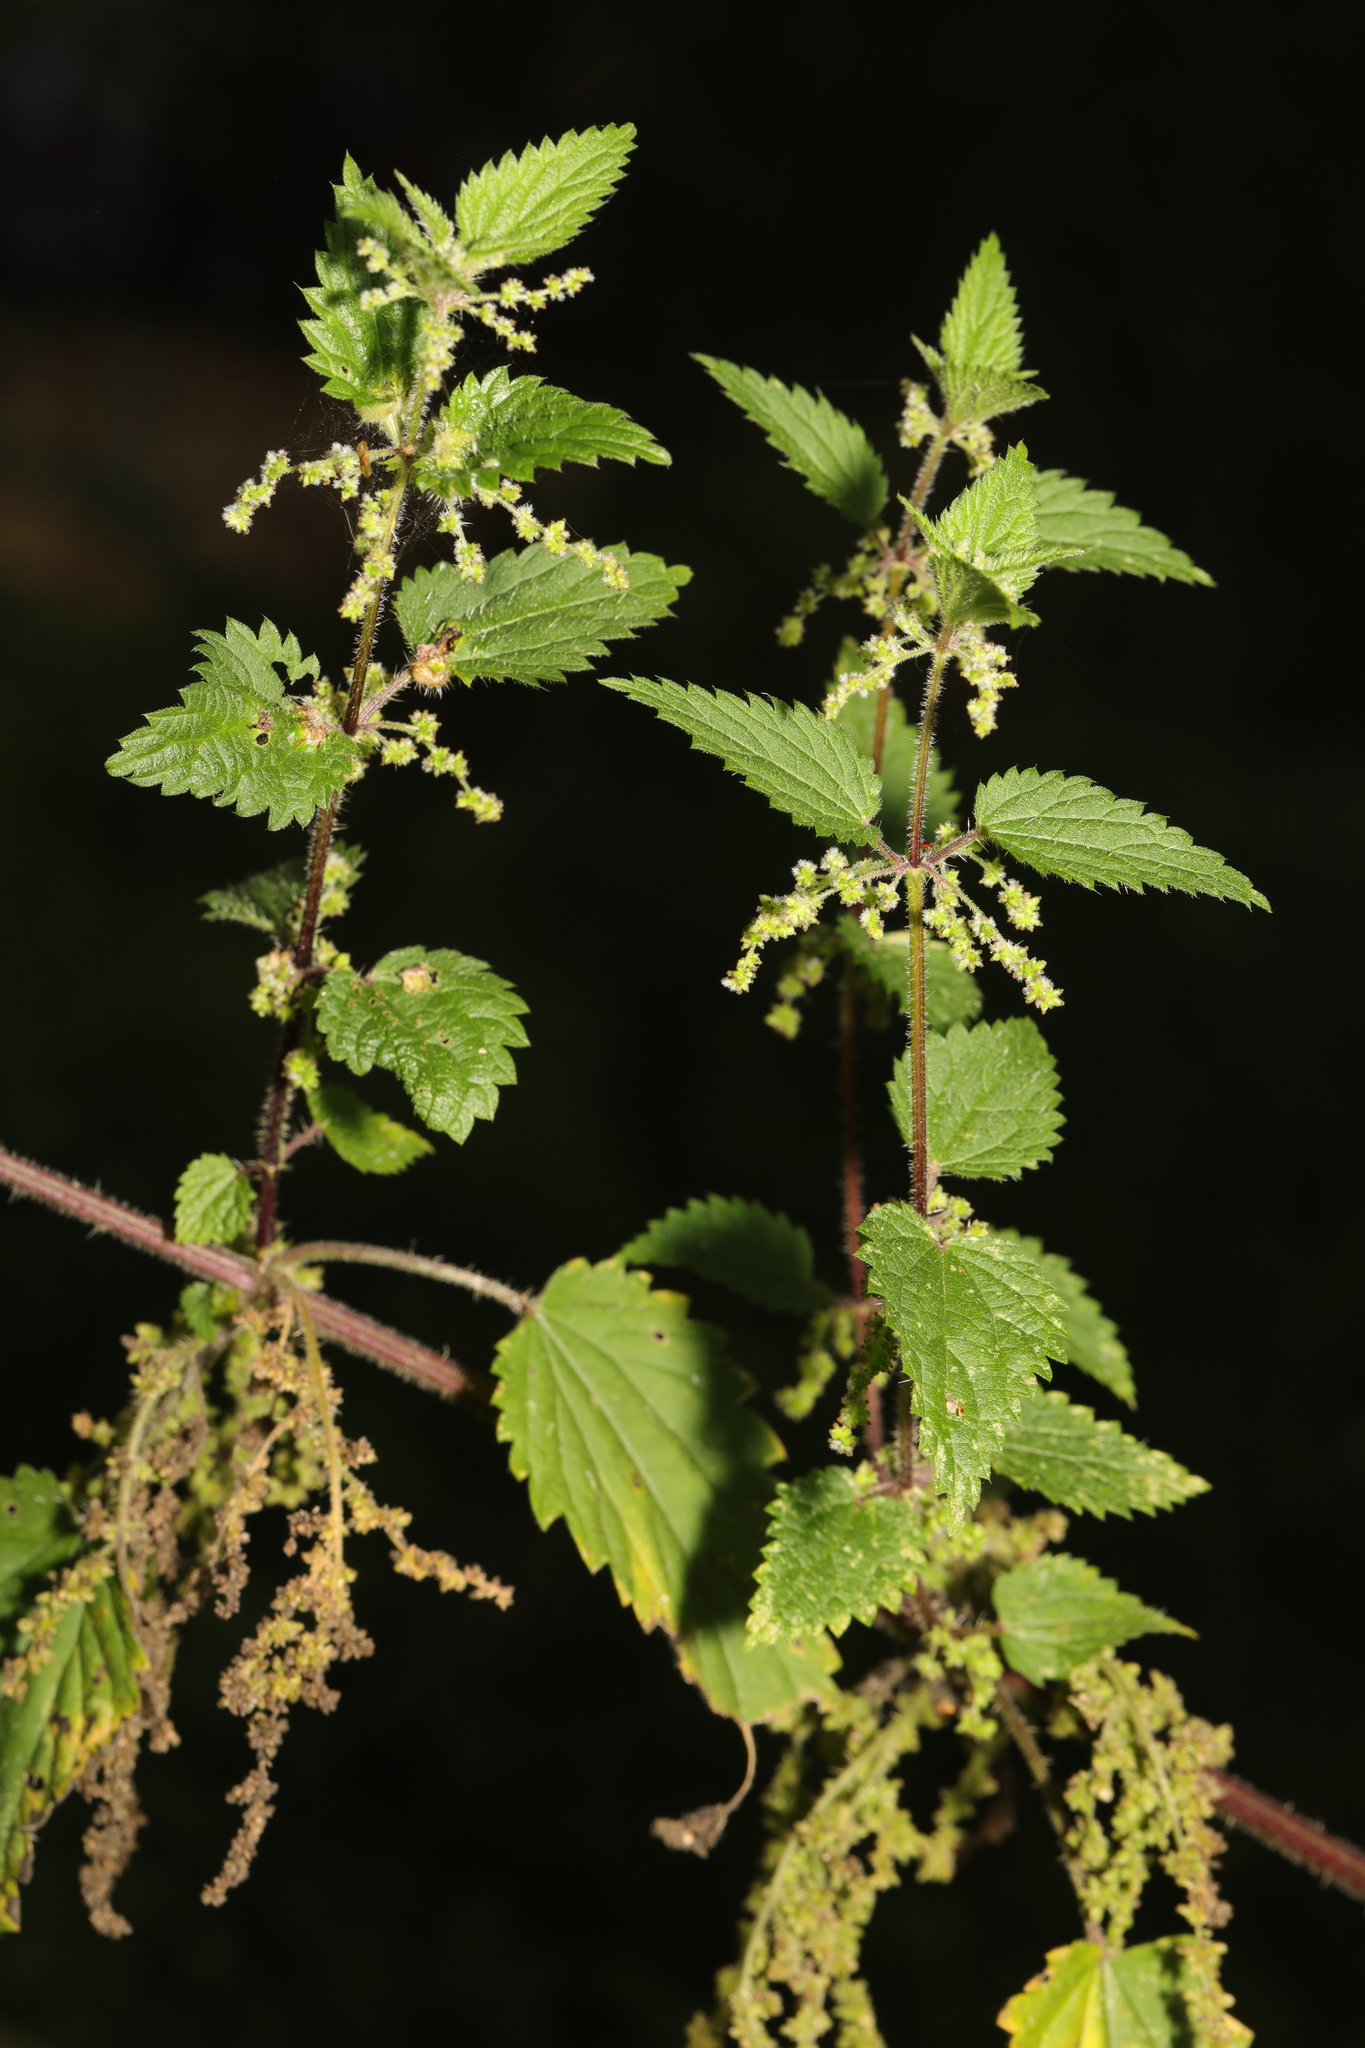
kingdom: Plantae
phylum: Tracheophyta
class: Magnoliopsida
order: Rosales
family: Urticaceae
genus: Urtica
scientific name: Urtica dioica
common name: Common nettle
